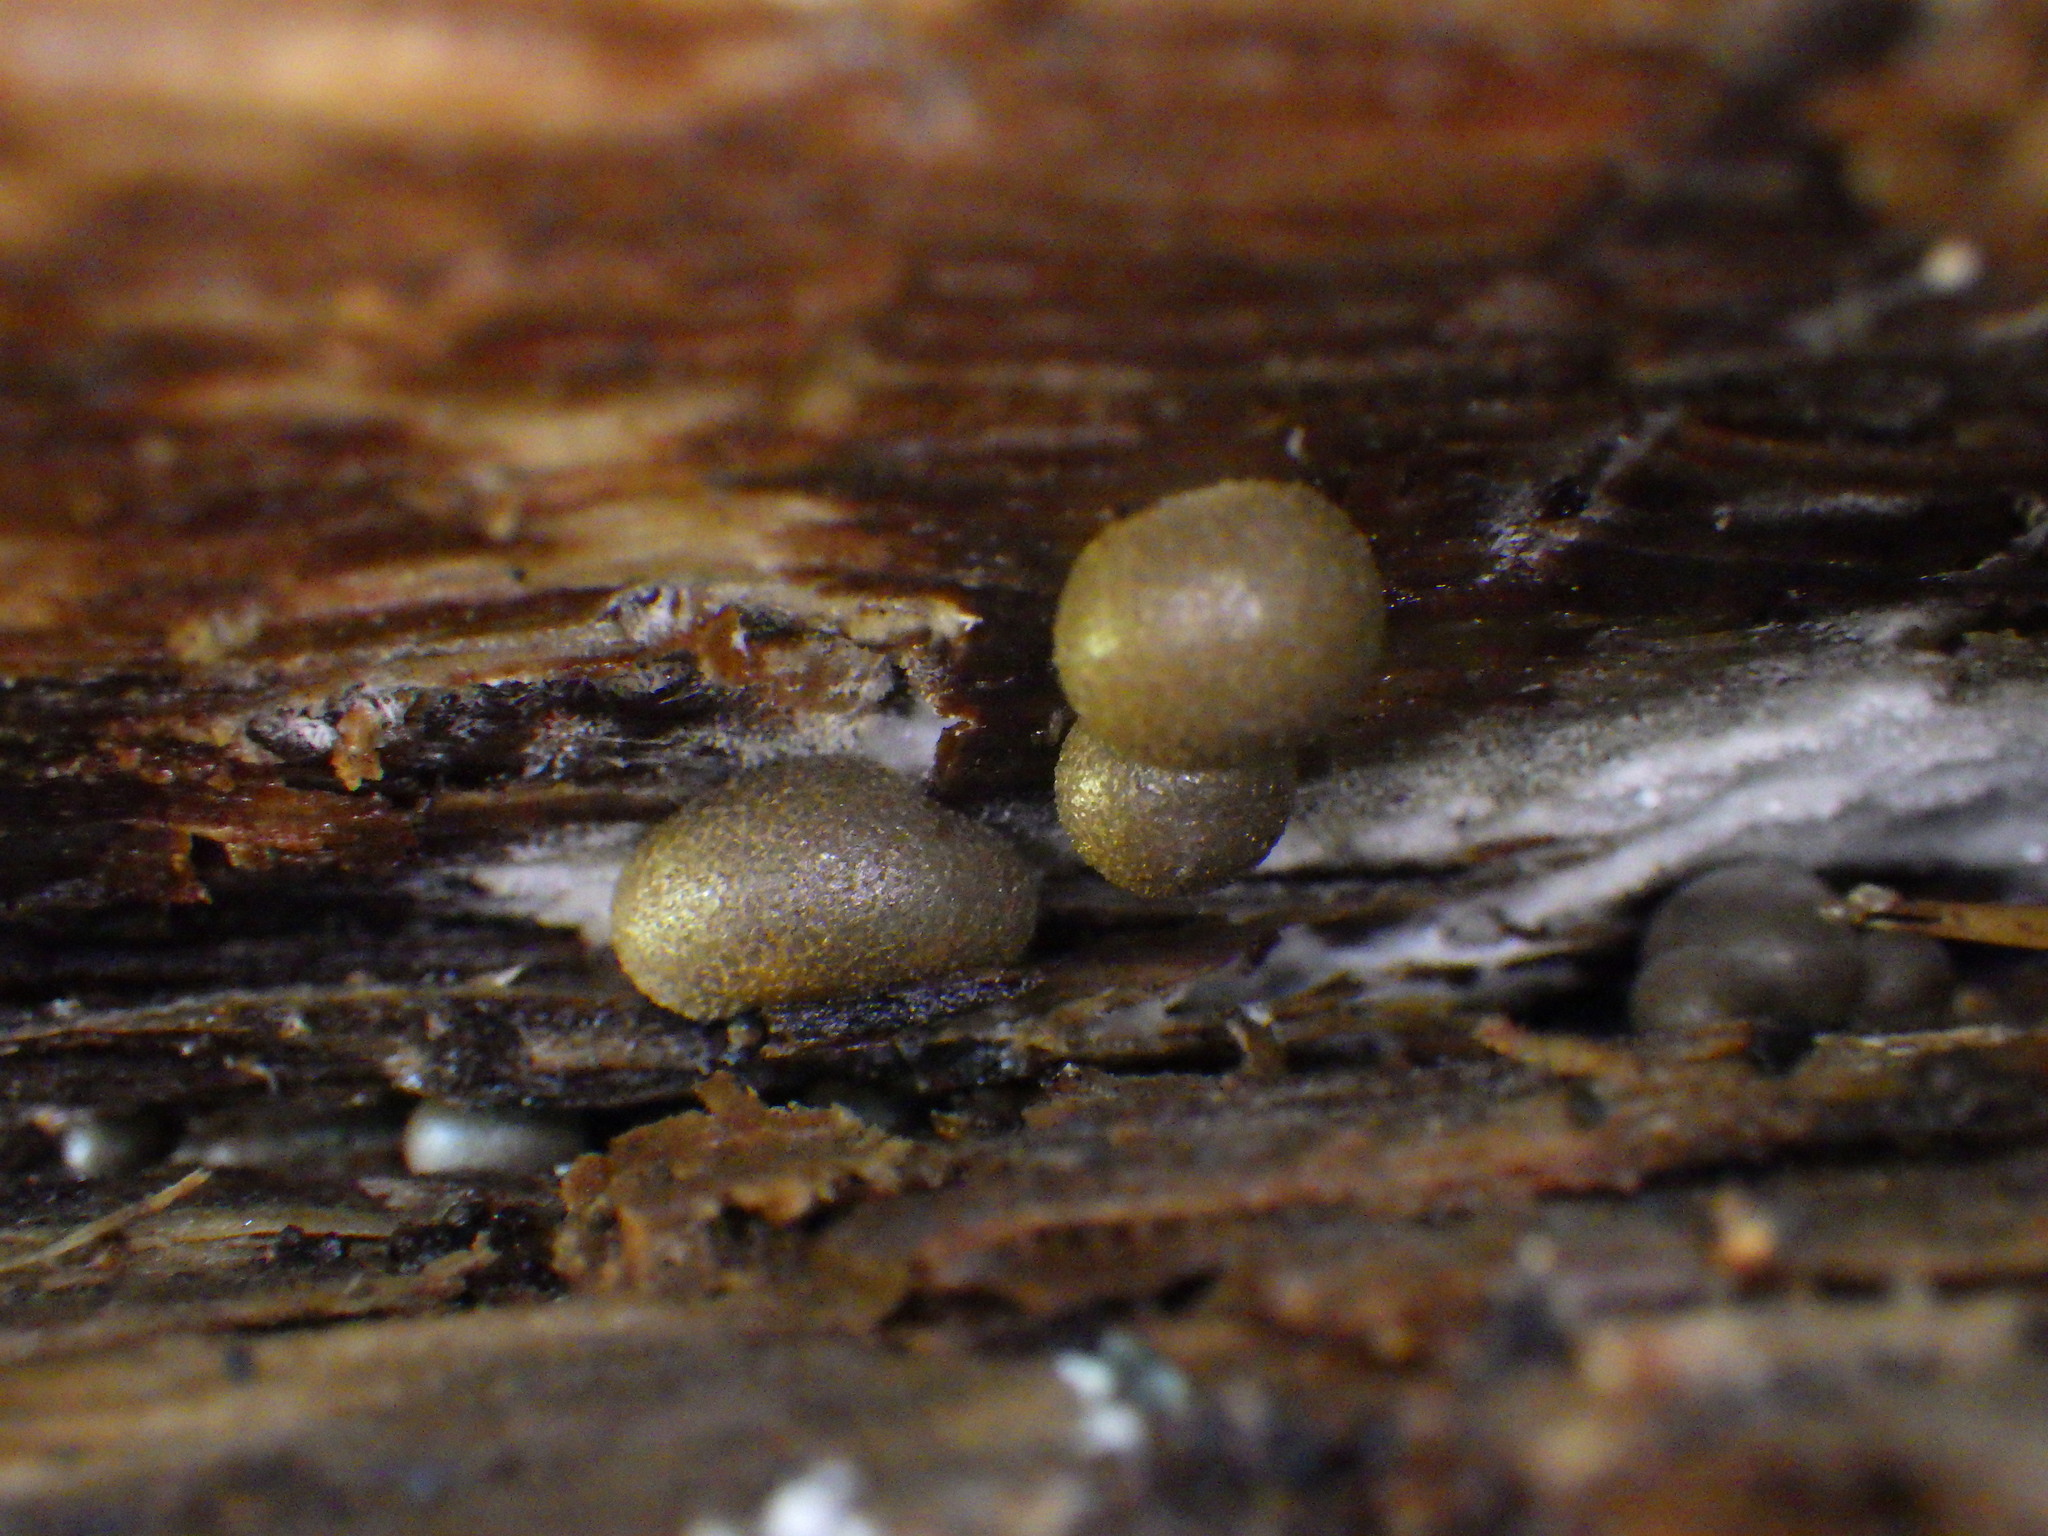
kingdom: Protozoa
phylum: Mycetozoa
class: Myxomycetes
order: Cribrariales
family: Tubiferaceae
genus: Lycogala
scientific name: Lycogala epidendrum
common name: Wolf's milk
